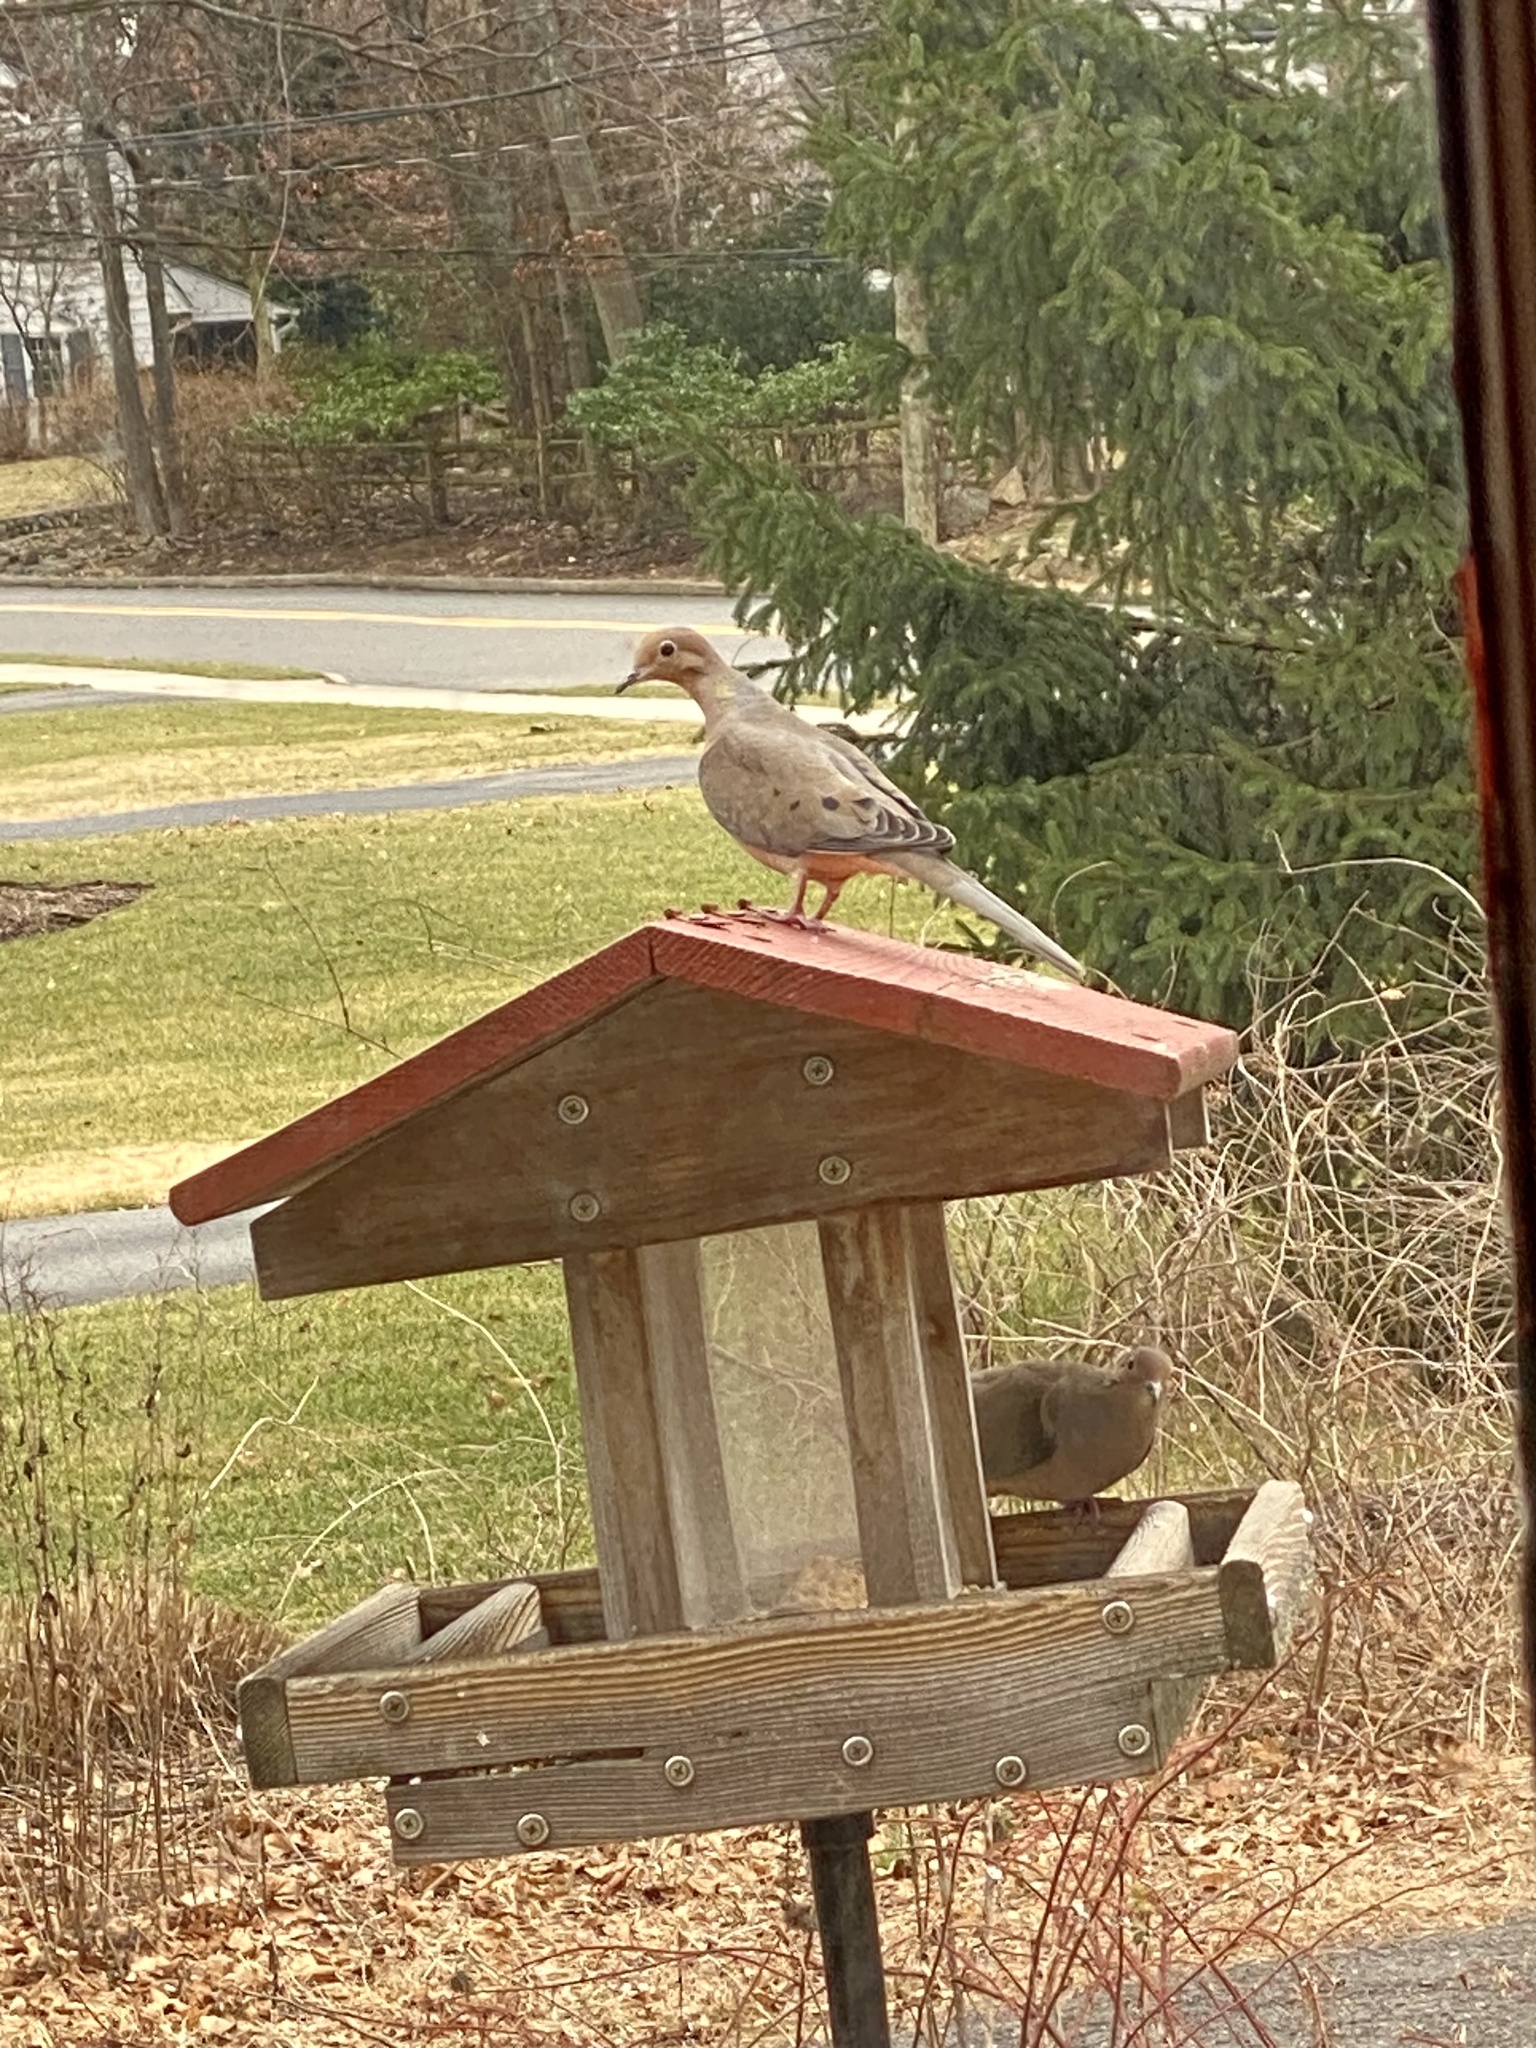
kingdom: Animalia
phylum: Chordata
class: Aves
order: Columbiformes
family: Columbidae
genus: Zenaida
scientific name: Zenaida macroura
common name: Mourning dove
